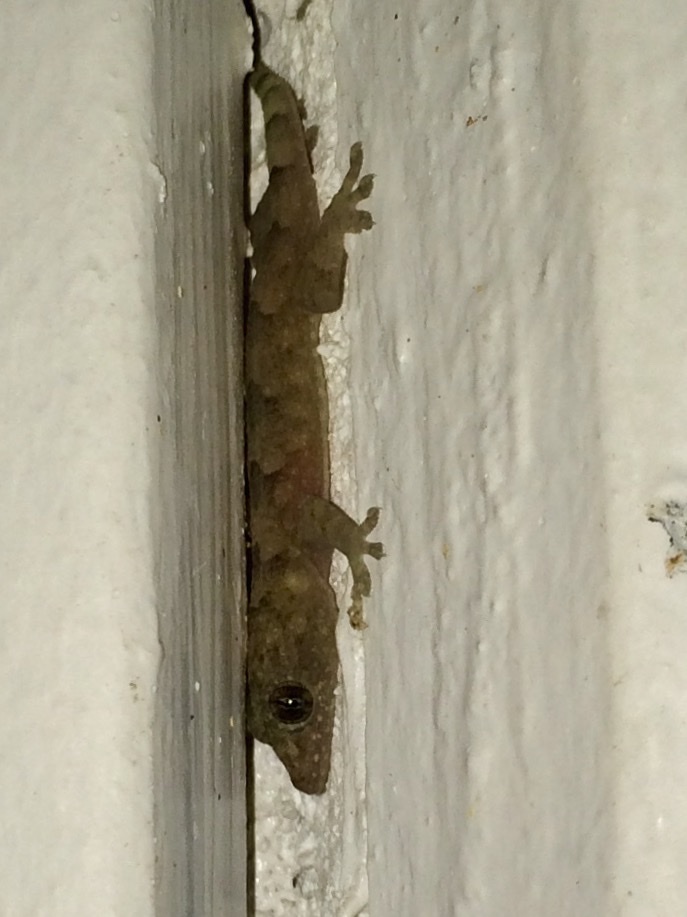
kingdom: Animalia
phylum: Chordata
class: Squamata
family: Gekkonidae
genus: Hemidactylus
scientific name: Hemidactylus mabouia
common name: House gecko
